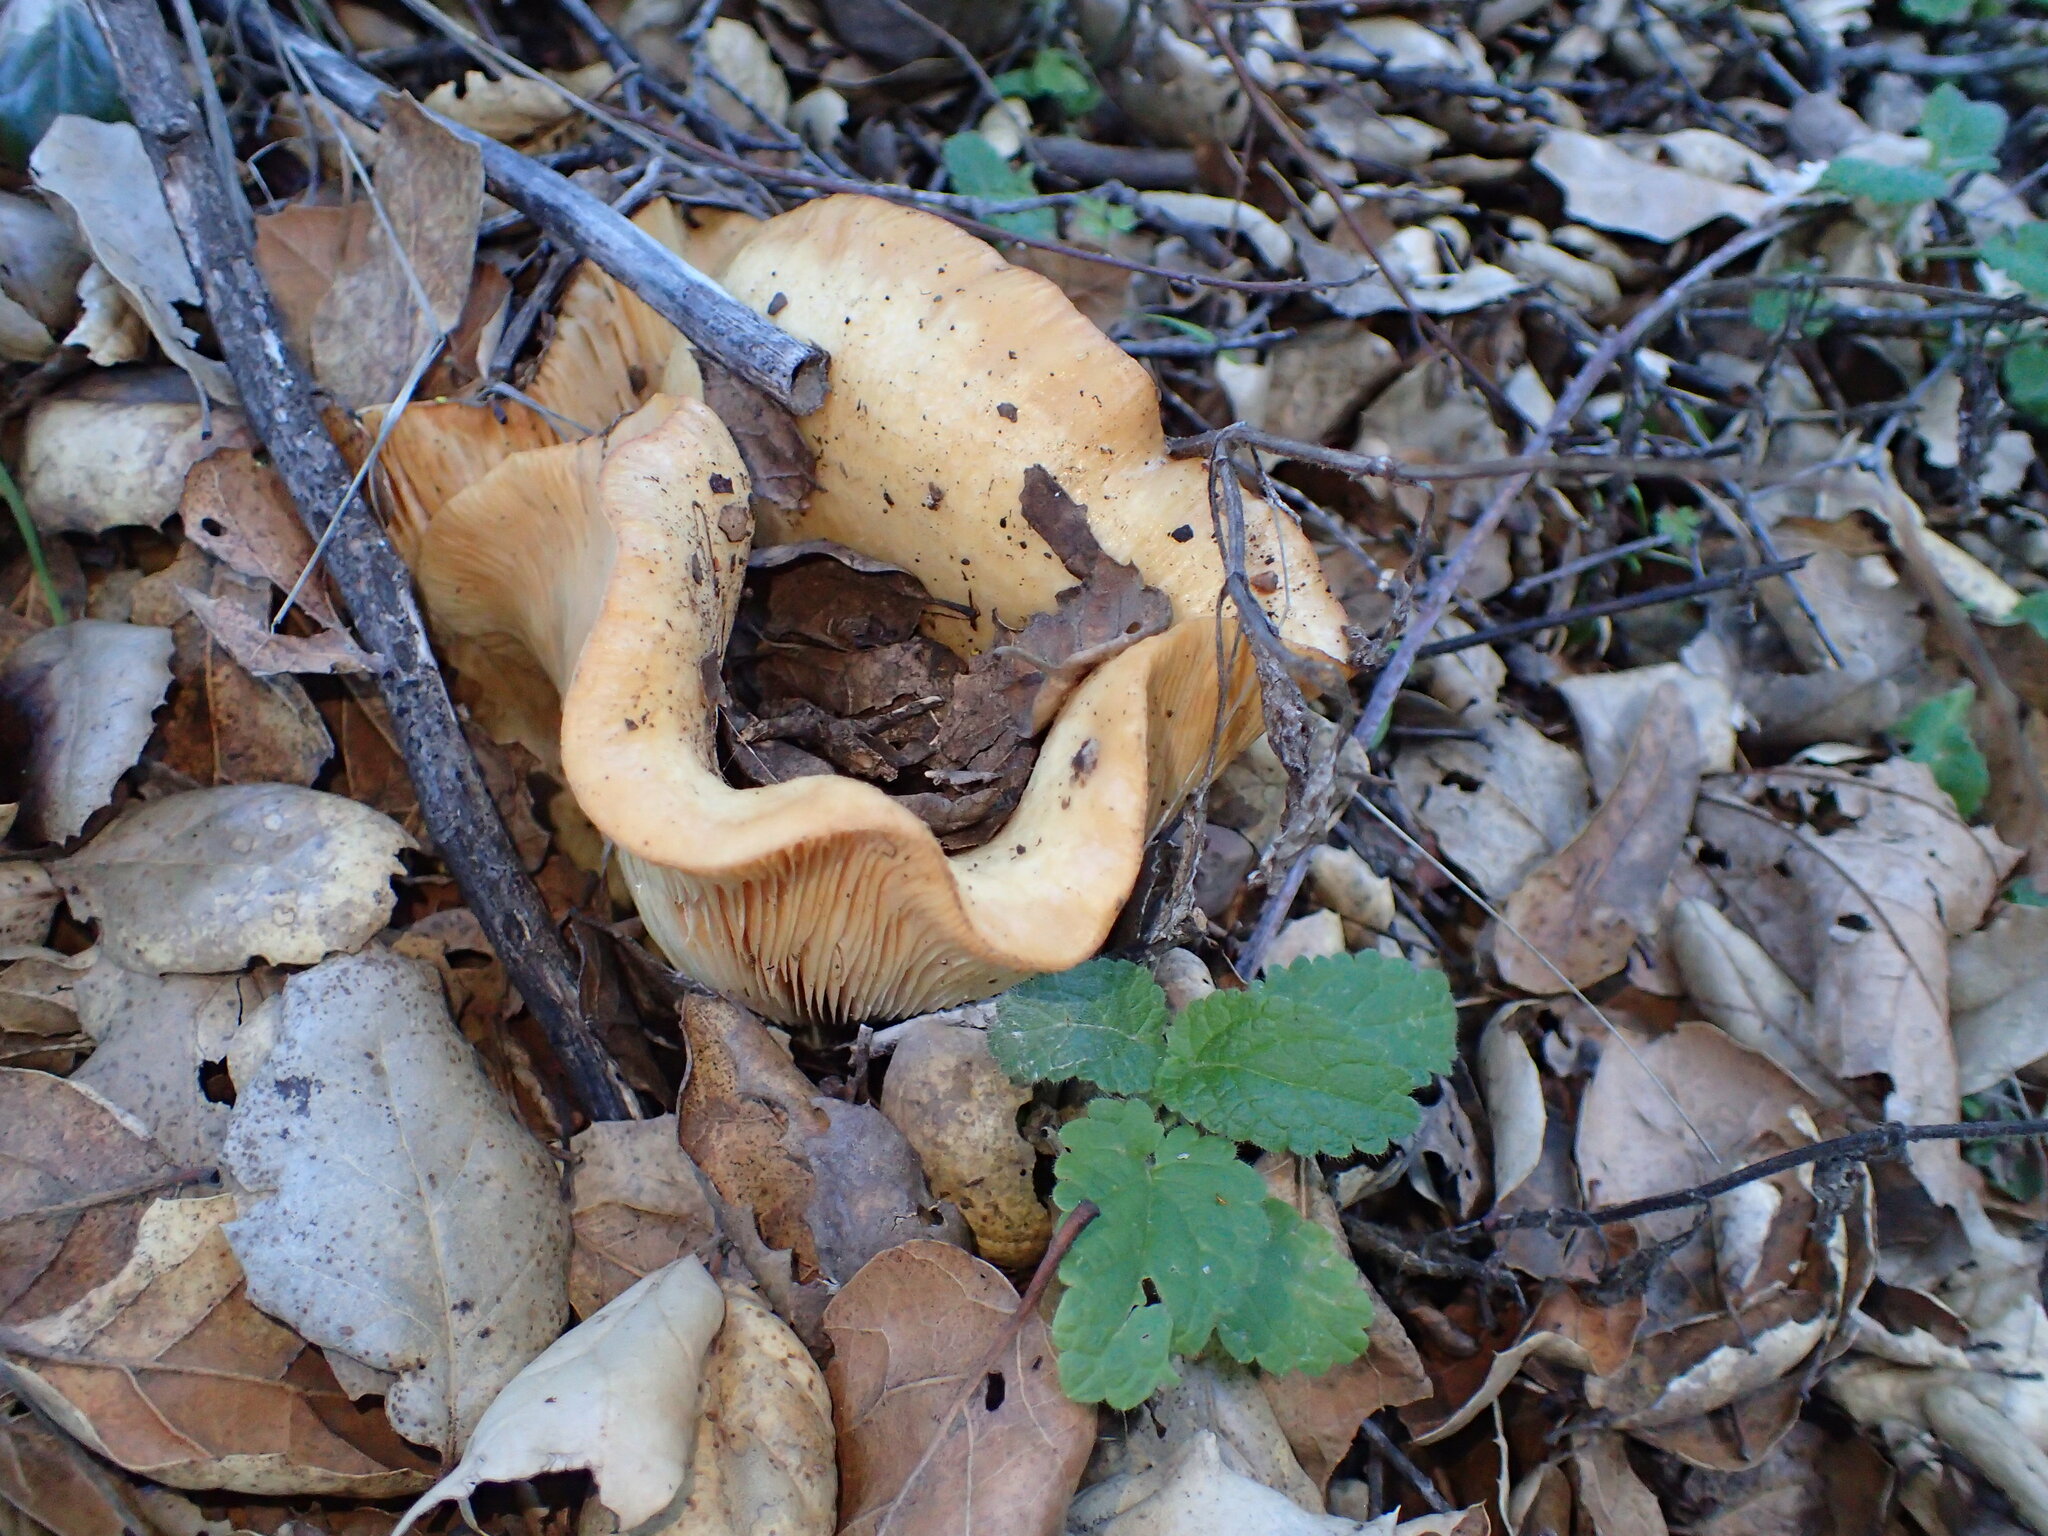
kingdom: Fungi
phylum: Basidiomycota
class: Agaricomycetes
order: Russulales
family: Russulaceae
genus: Lactarius
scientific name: Lactarius alnicola
